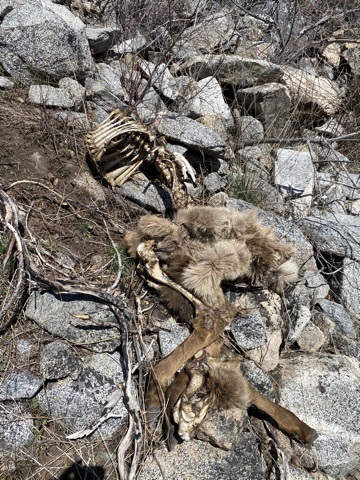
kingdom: Animalia
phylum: Chordata
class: Mammalia
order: Artiodactyla
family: Cervidae
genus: Cervus
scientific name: Cervus elaphus
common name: Red deer
